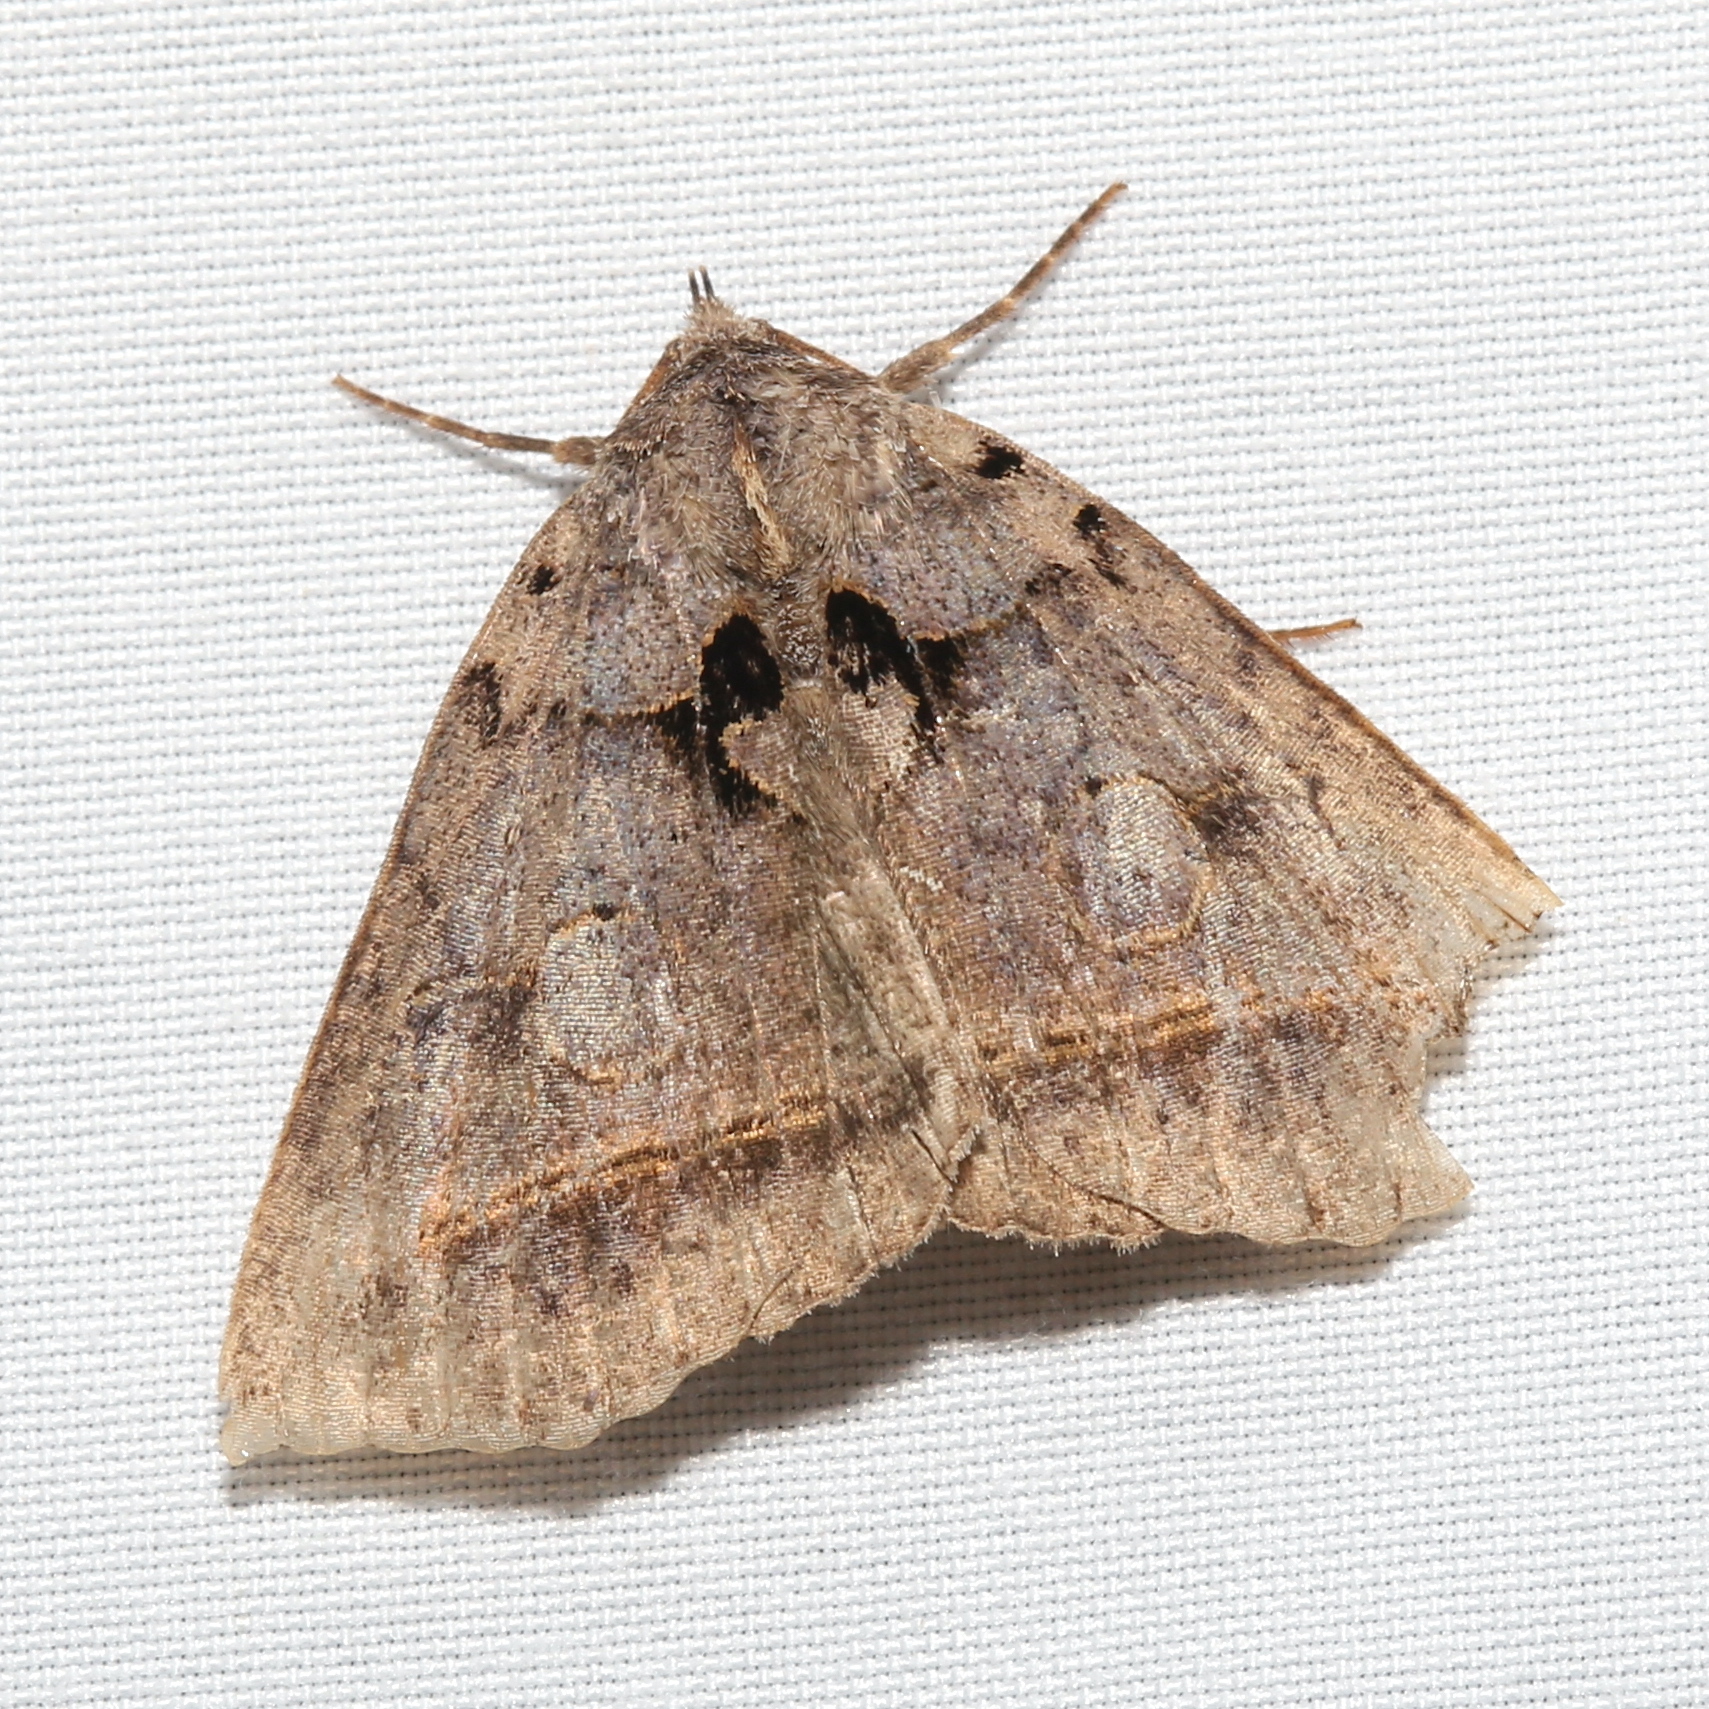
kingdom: Animalia
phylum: Arthropoda
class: Insecta
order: Lepidoptera
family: Erebidae
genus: Celiptera
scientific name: Celiptera frustulum
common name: Black bit moth
